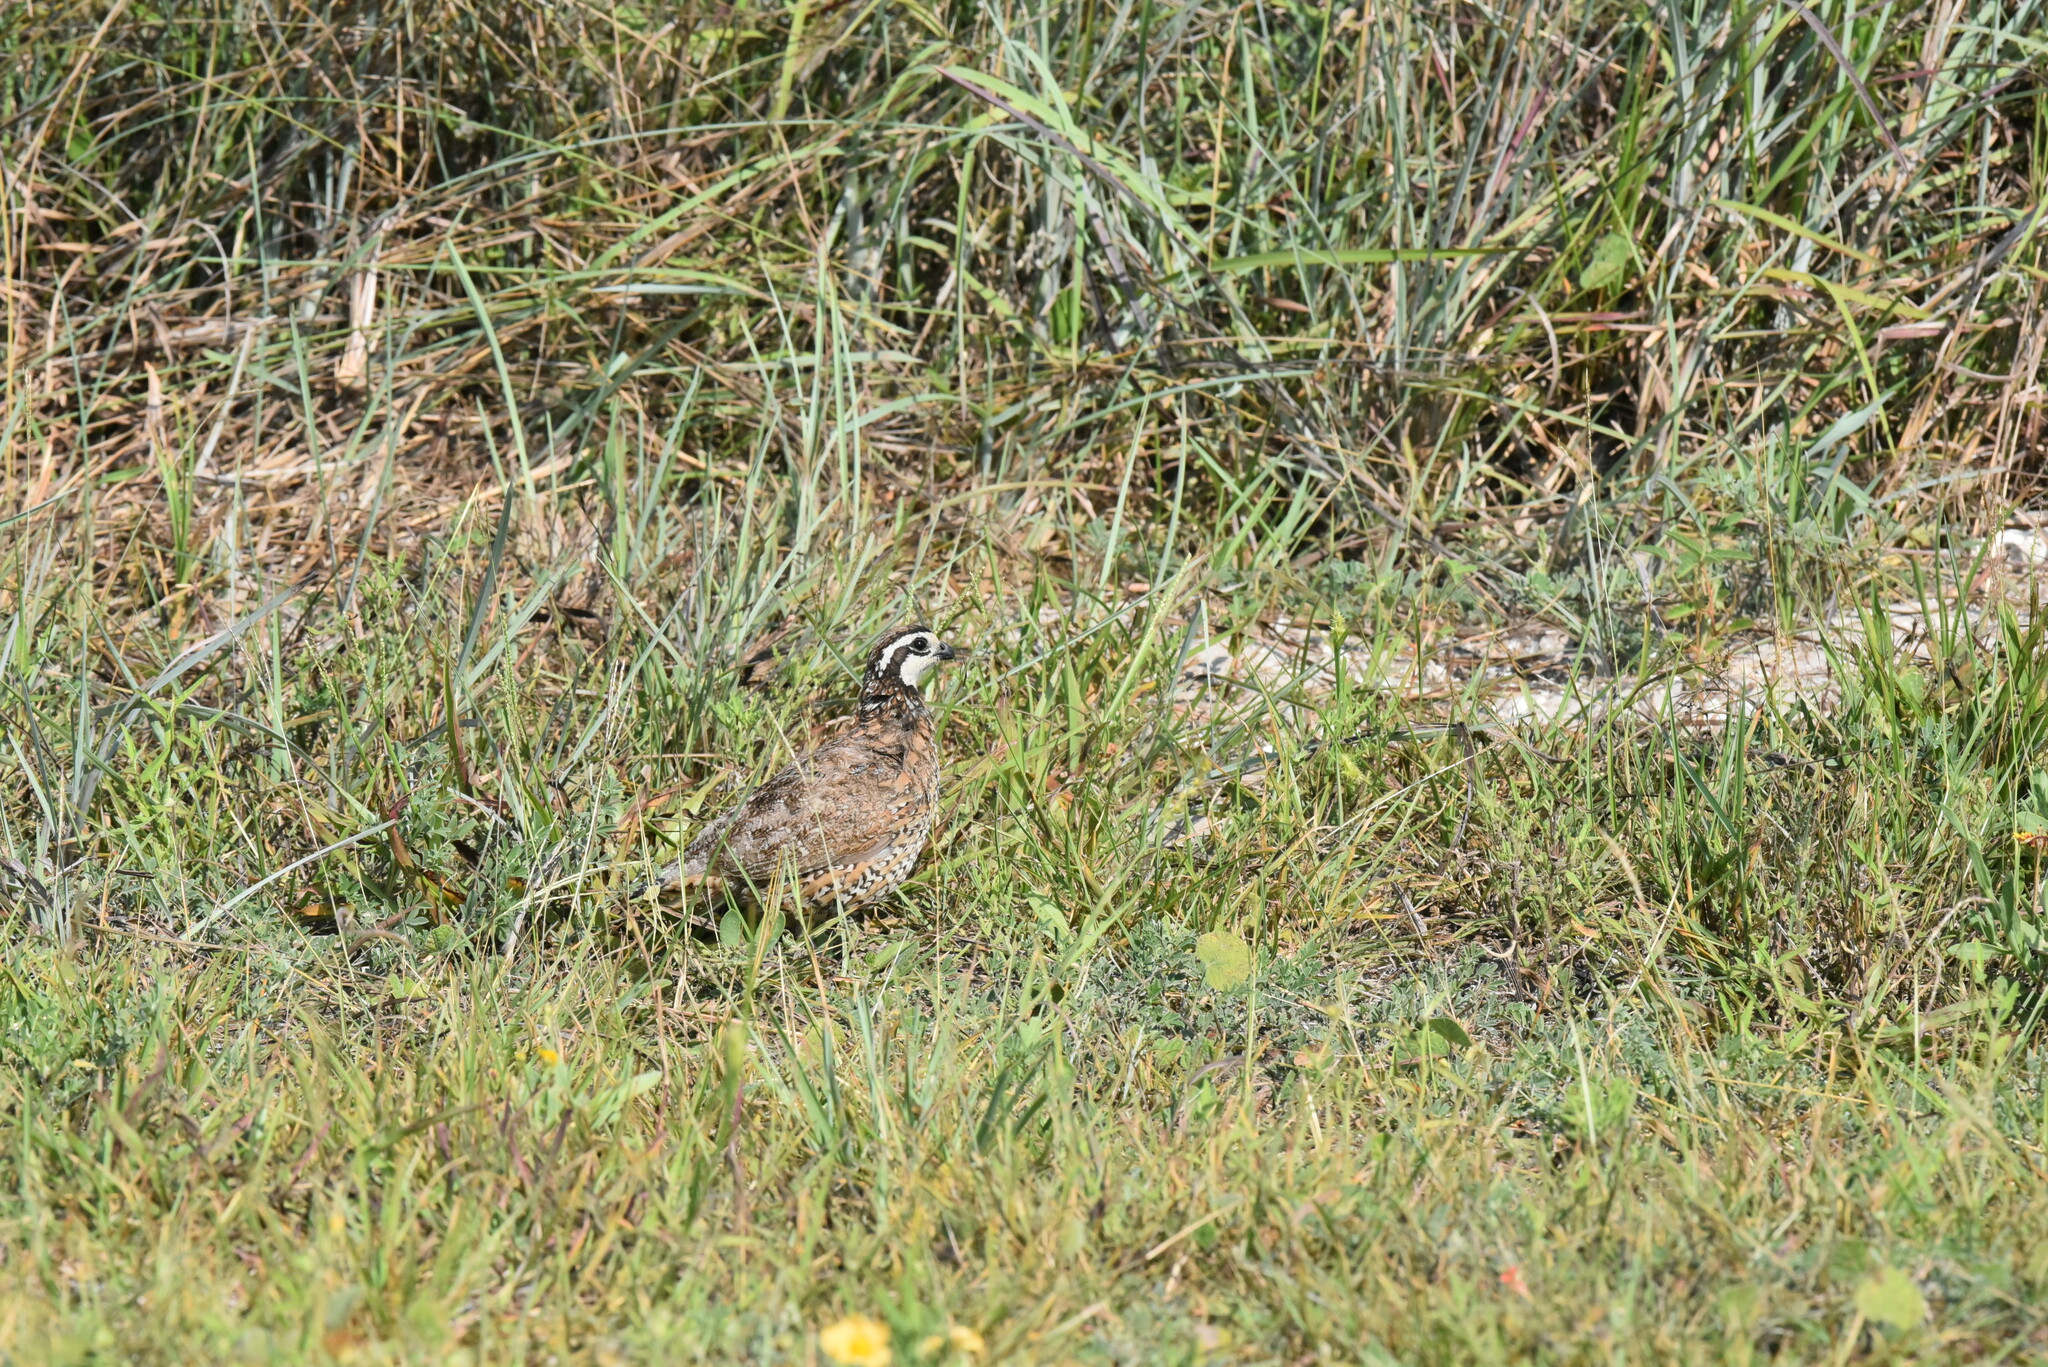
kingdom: Animalia
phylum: Chordata
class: Aves
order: Galliformes
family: Odontophoridae
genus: Colinus
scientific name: Colinus virginianus
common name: Northern bobwhite
